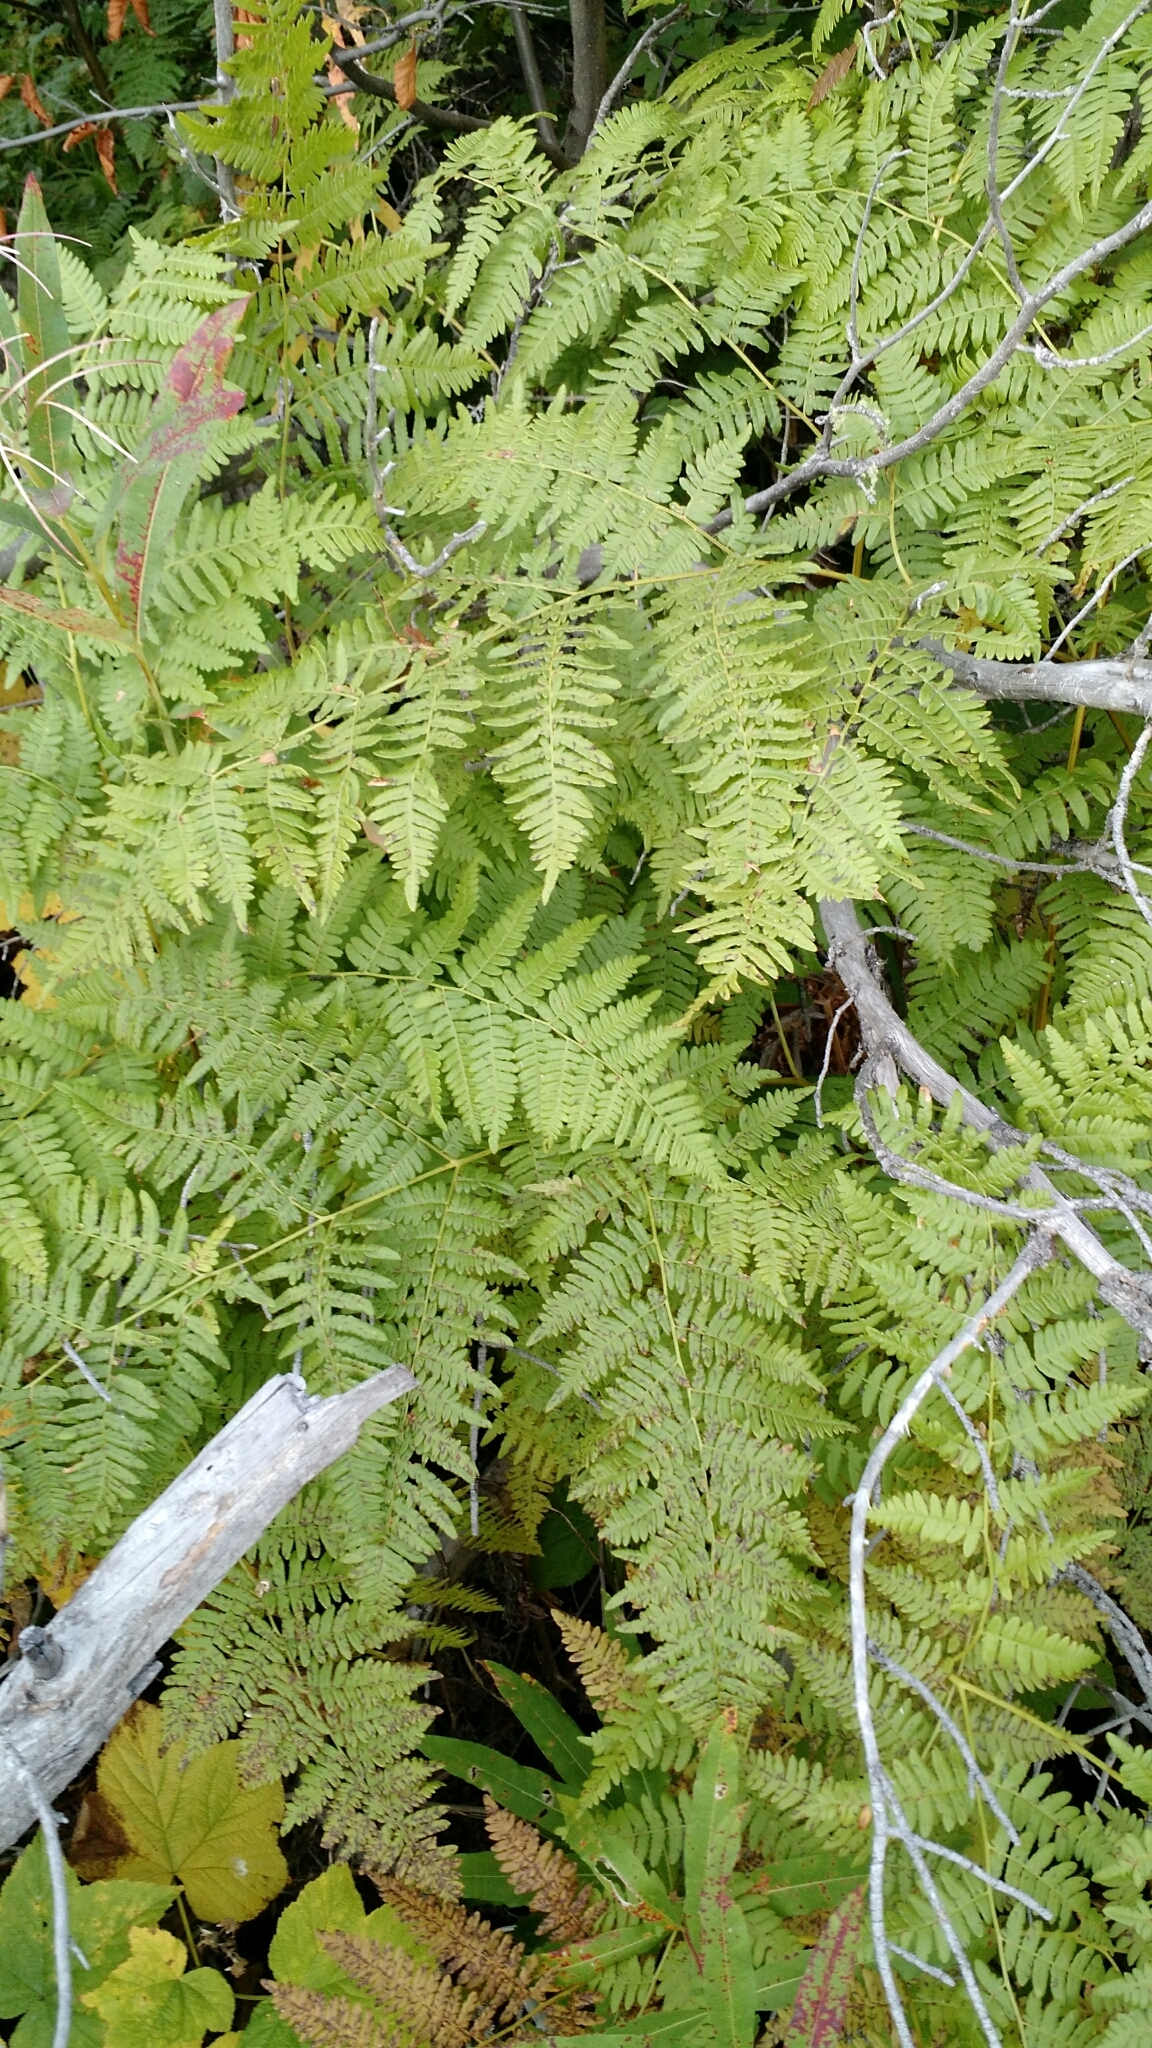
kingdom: Plantae
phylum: Tracheophyta
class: Polypodiopsida
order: Polypodiales
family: Dennstaedtiaceae
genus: Pteridium
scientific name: Pteridium aquilinum
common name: Bracken
